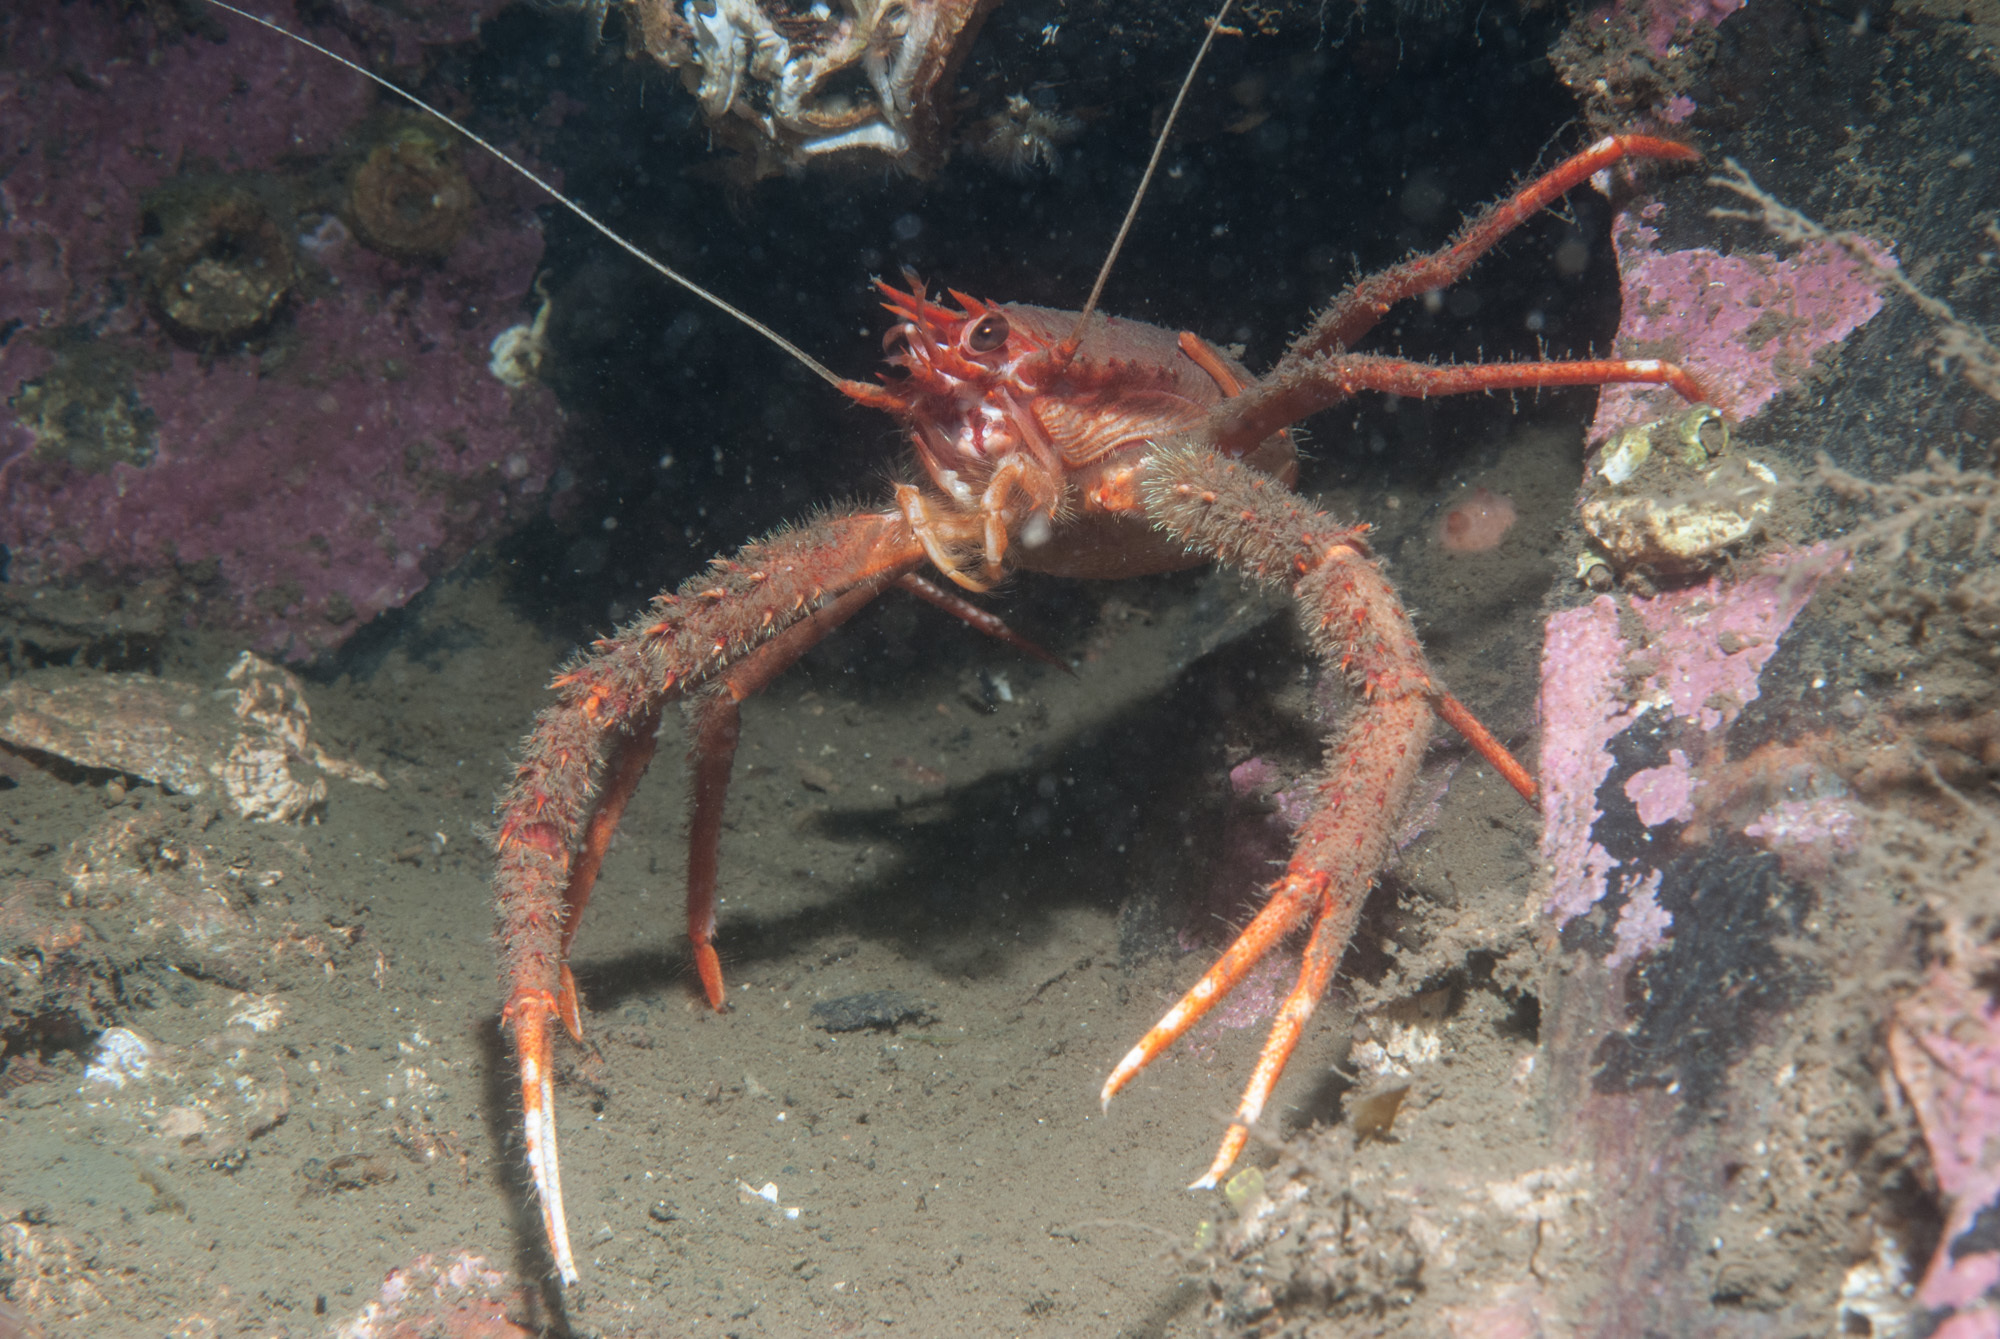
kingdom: Animalia
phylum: Arthropoda
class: Malacostraca
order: Decapoda
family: Munididae
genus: Munida
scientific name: Munida rugosa
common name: Rugose squat lobster
